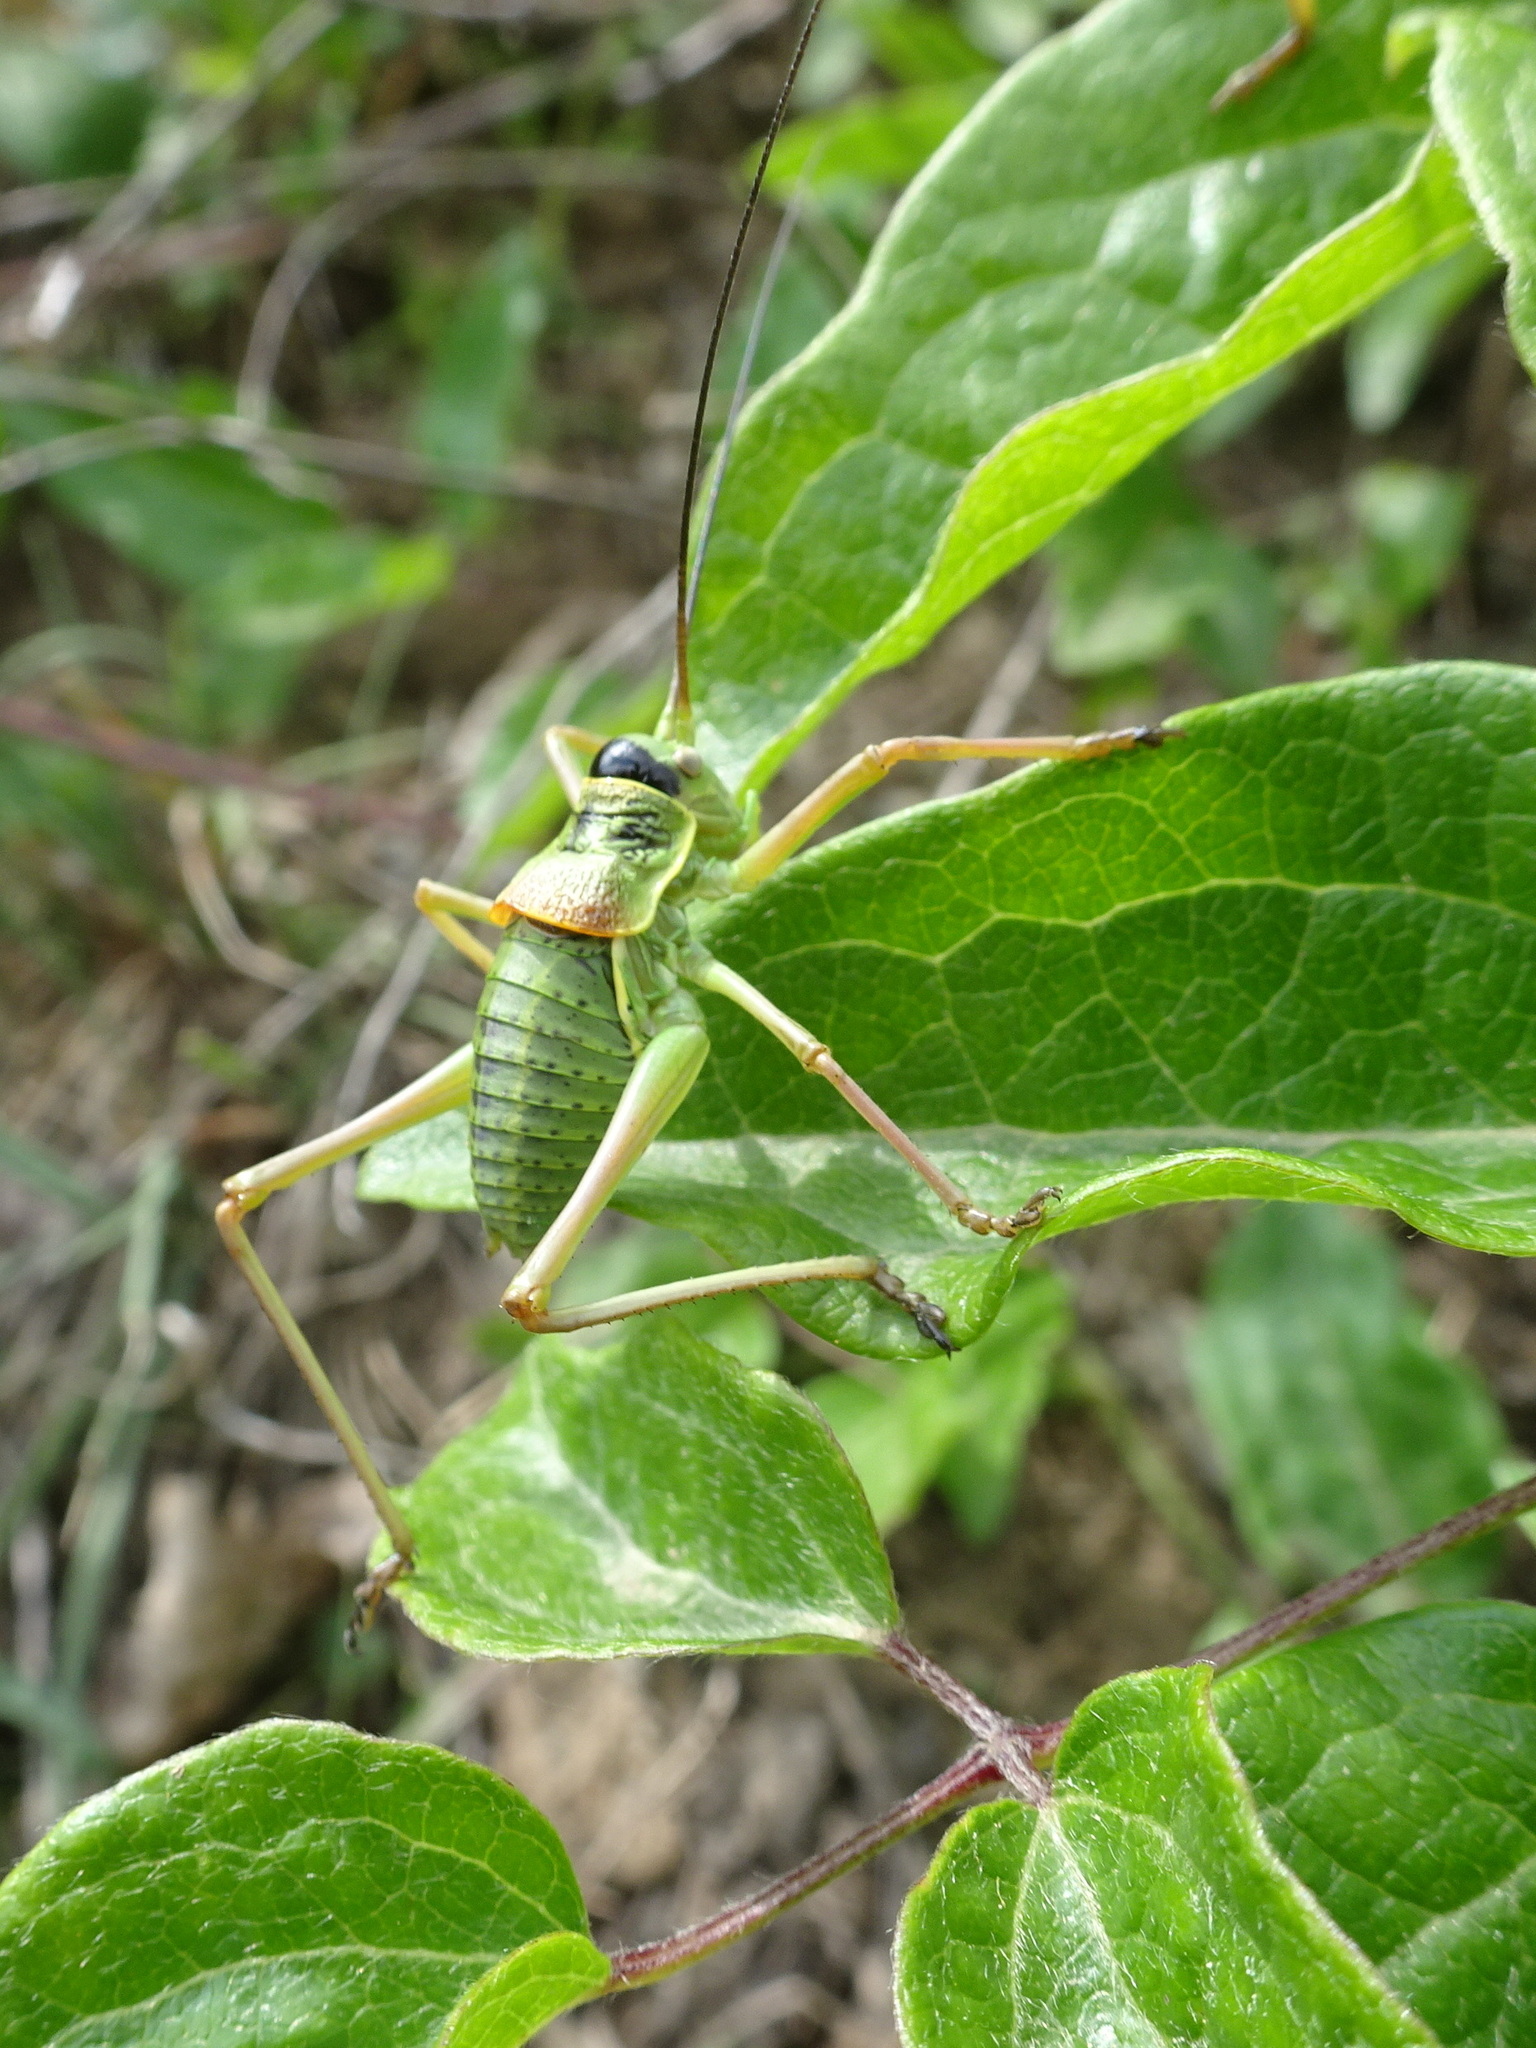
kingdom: Animalia
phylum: Arthropoda
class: Insecta
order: Orthoptera
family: Tettigoniidae
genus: Ephippiger
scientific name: Ephippiger diurnus
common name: Western saddle bush-cricket
